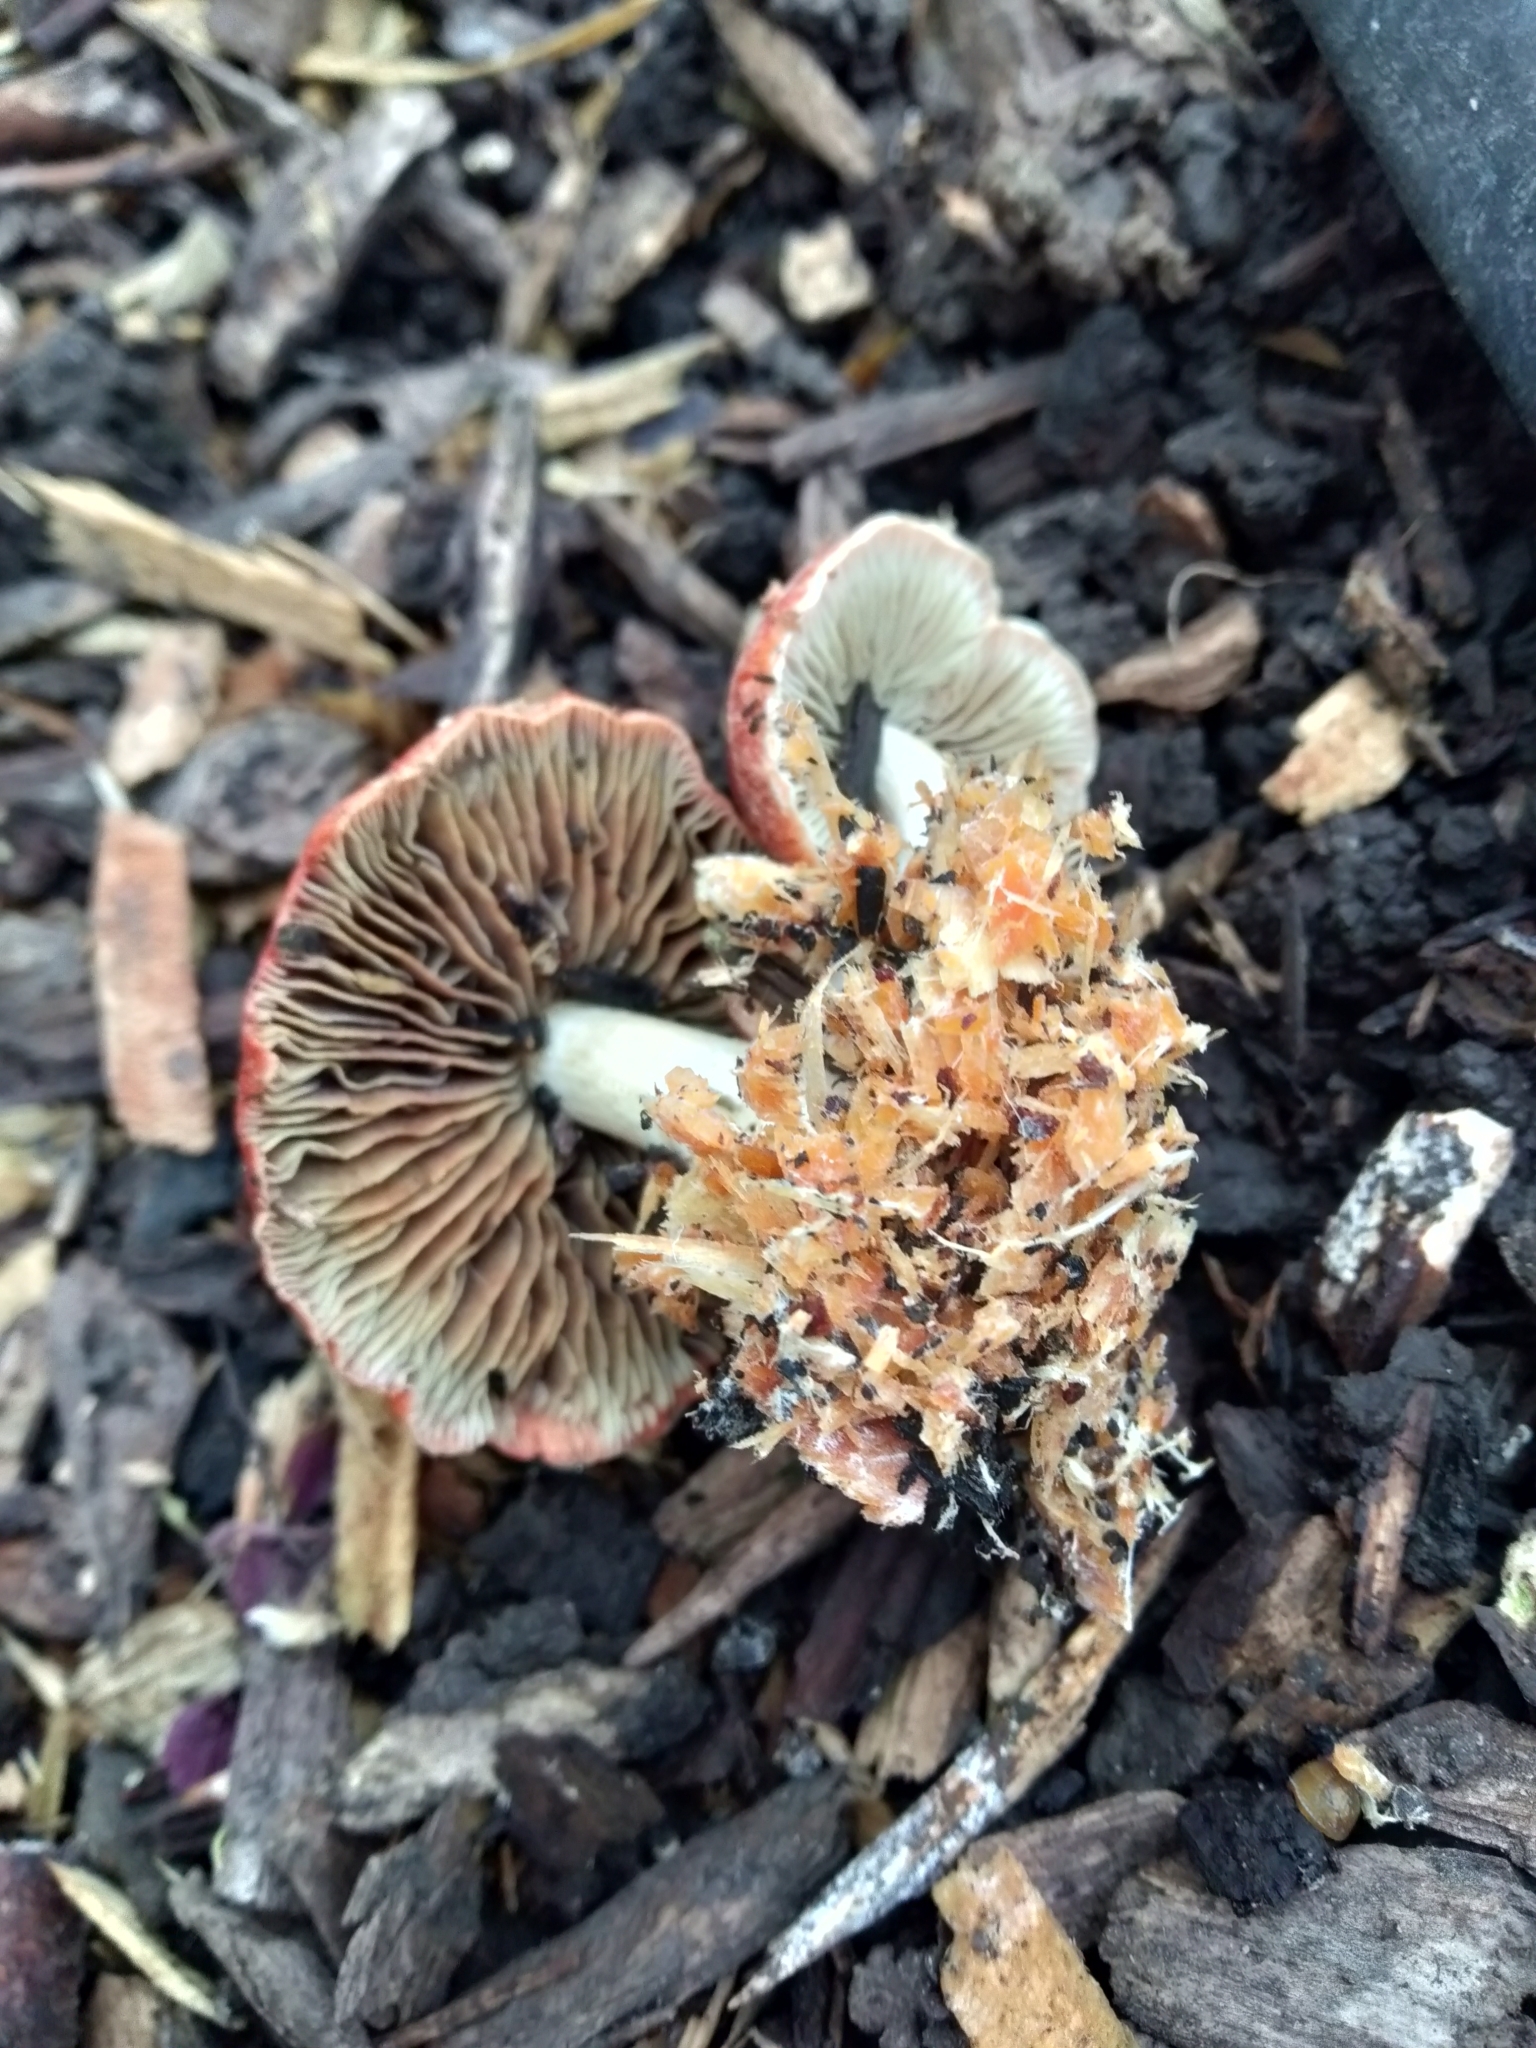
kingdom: Fungi
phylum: Basidiomycota
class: Agaricomycetes
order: Agaricales
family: Strophariaceae
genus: Leratiomyces
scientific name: Leratiomyces ceres
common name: Redlead roundhead
